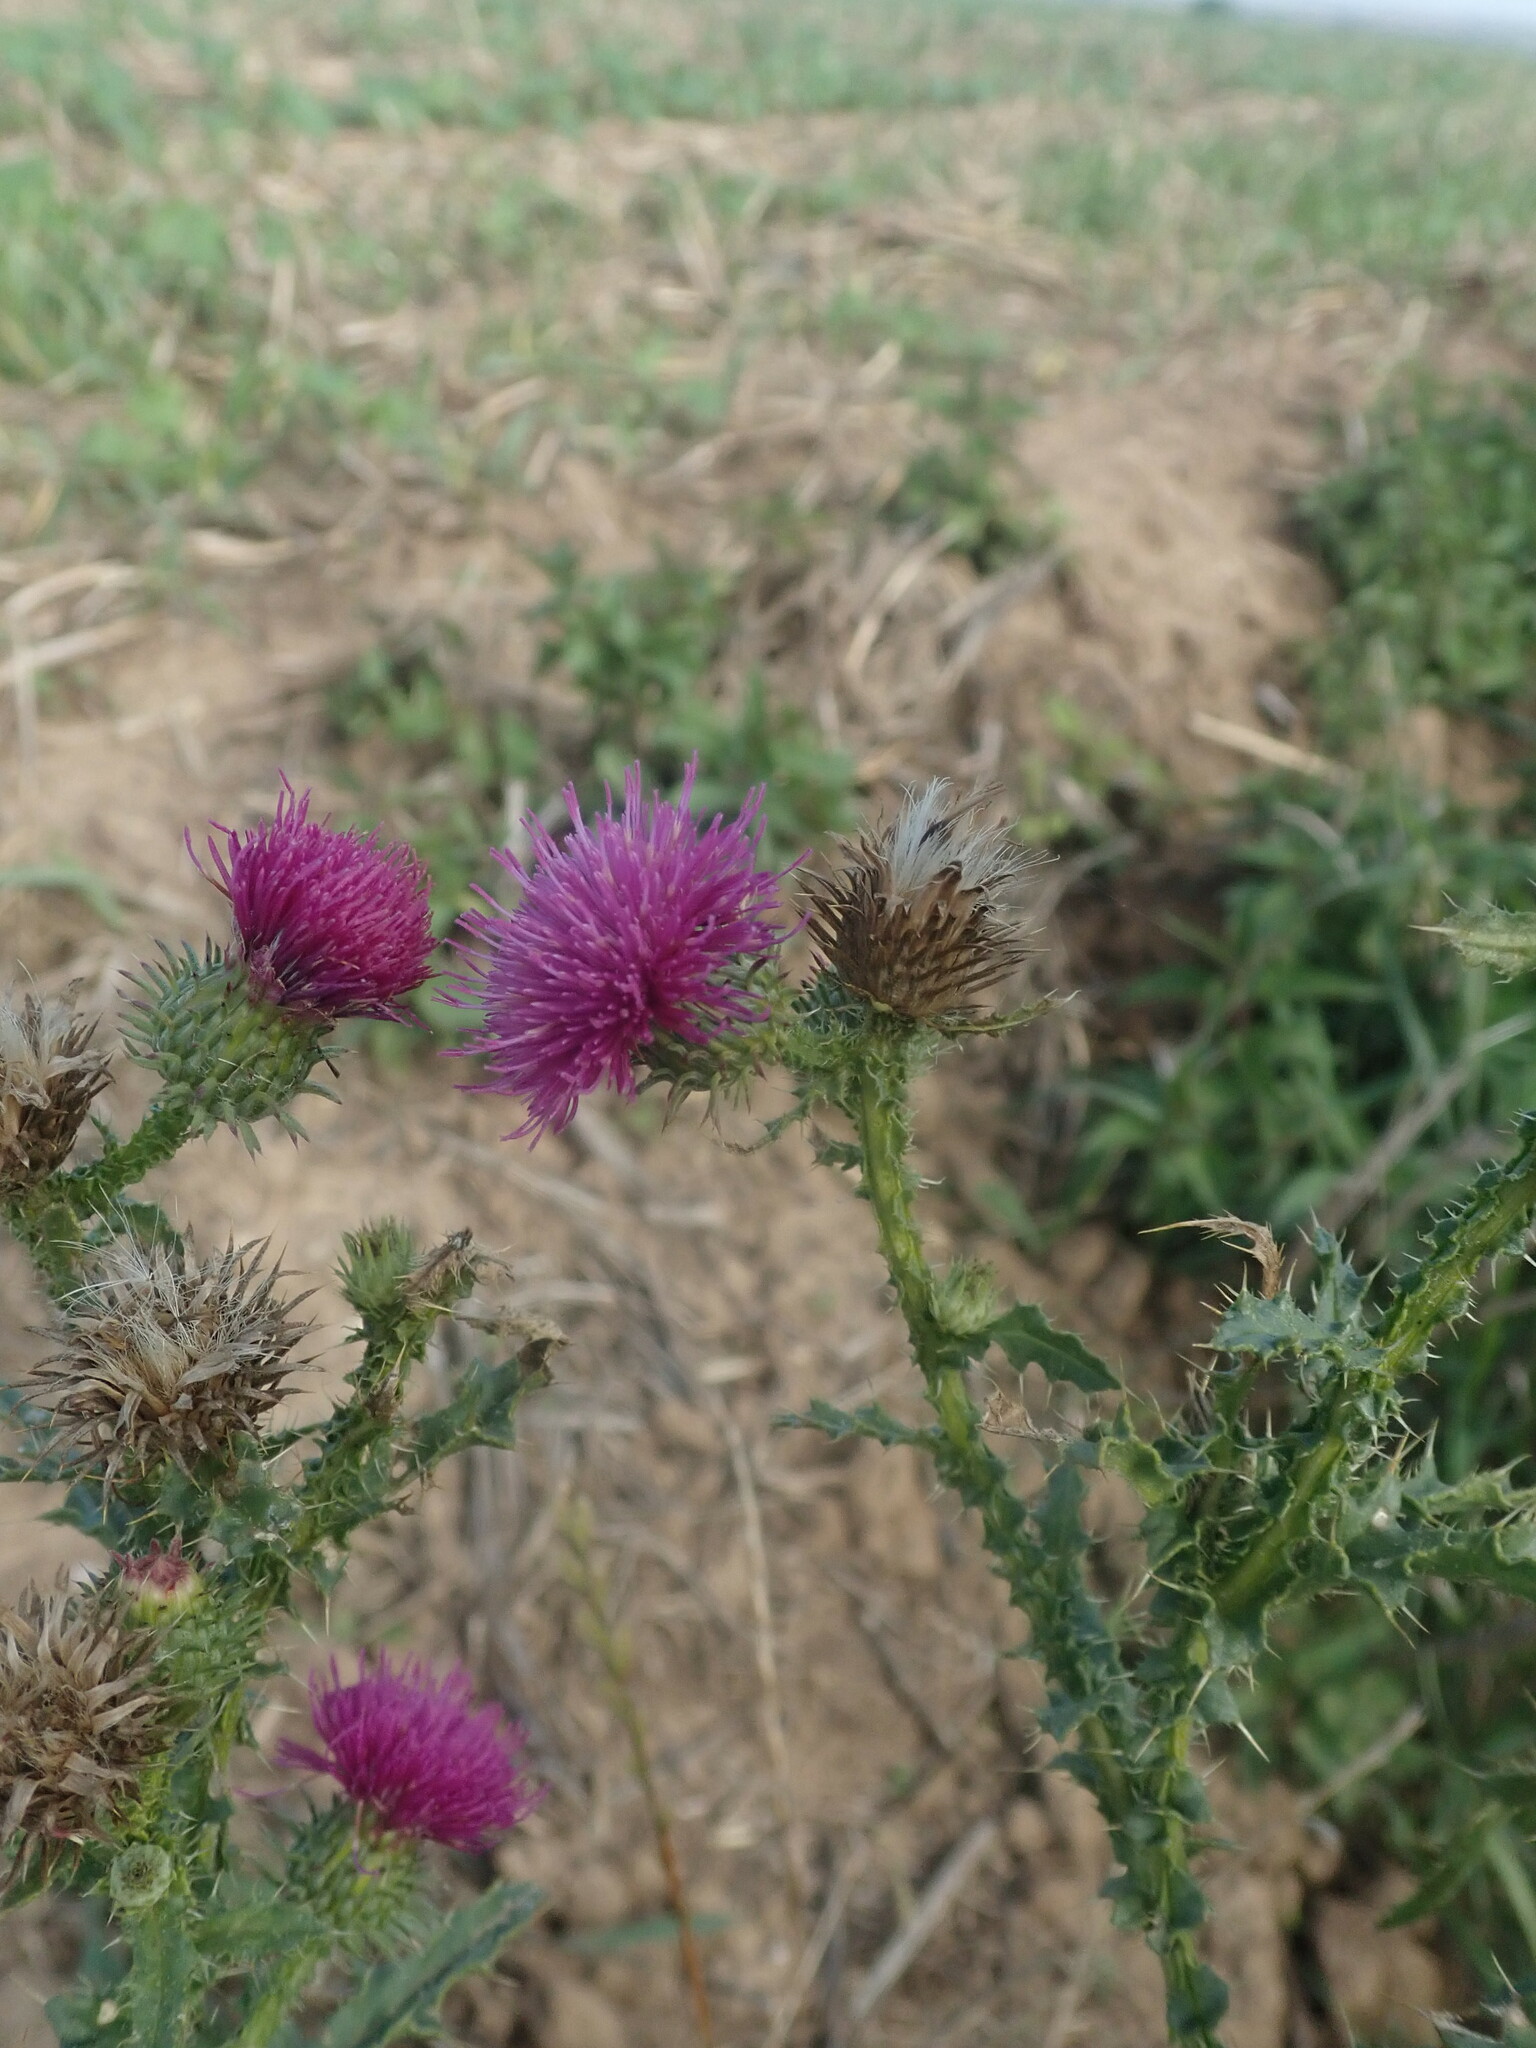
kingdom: Plantae
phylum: Tracheophyta
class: Magnoliopsida
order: Asterales
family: Asteraceae
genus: Carduus
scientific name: Carduus acanthoides
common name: Plumeless thistle
